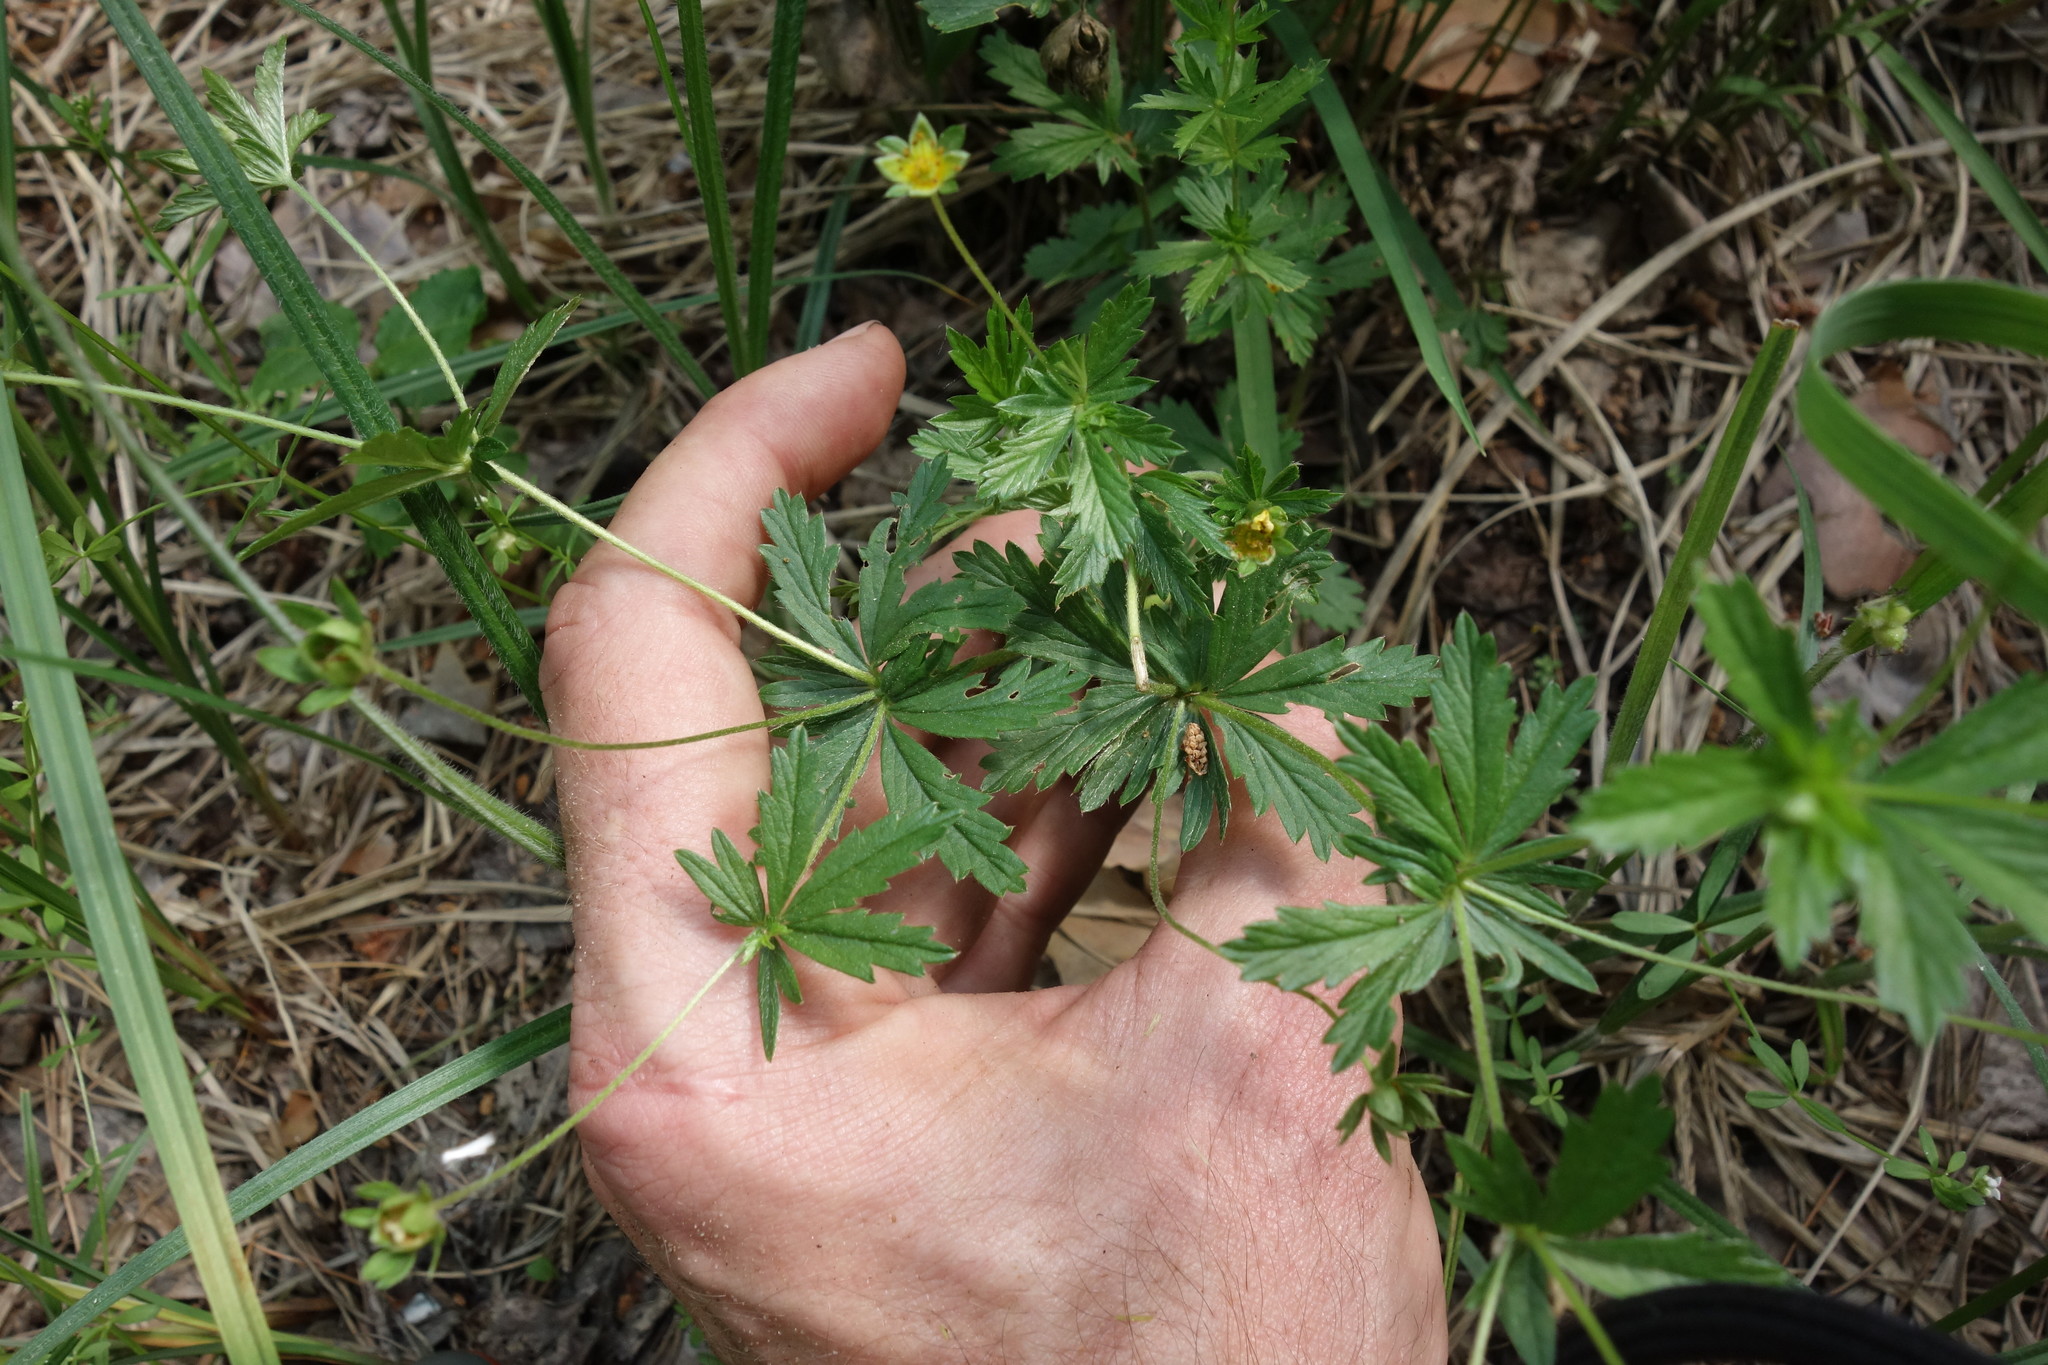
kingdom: Plantae
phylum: Tracheophyta
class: Magnoliopsida
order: Rosales
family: Rosaceae
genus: Potentilla
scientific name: Potentilla erecta
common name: Tormentil
